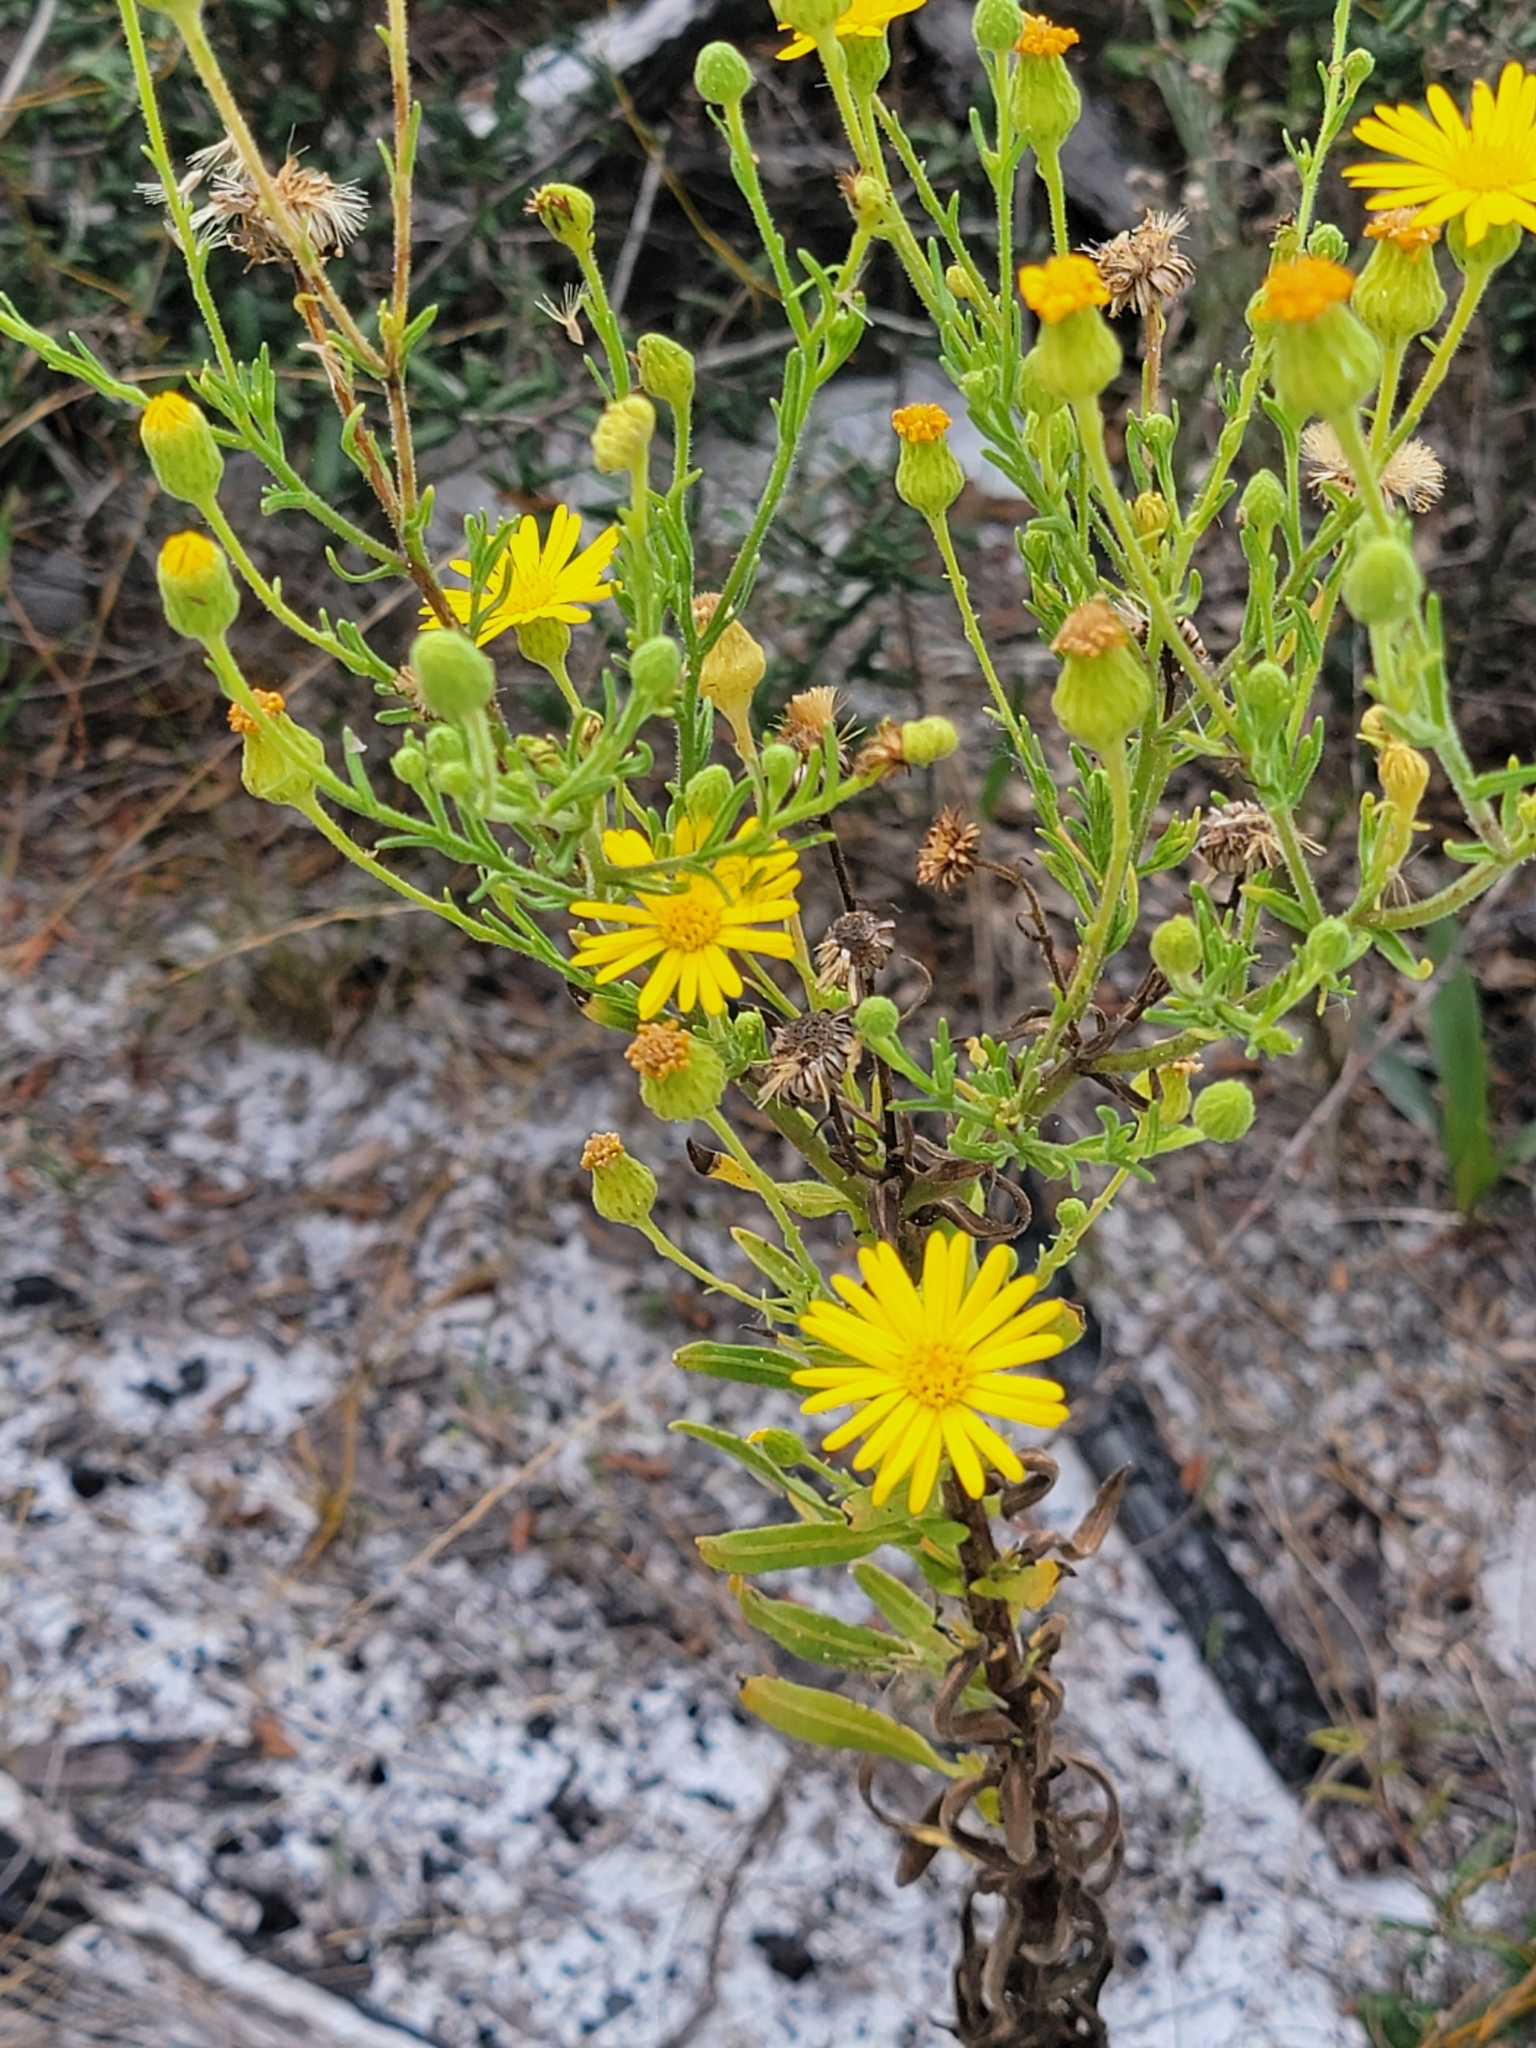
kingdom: Plantae
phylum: Tracheophyta
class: Magnoliopsida
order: Asterales
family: Asteraceae
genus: Chrysopsis
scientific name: Chrysopsis scabrella
